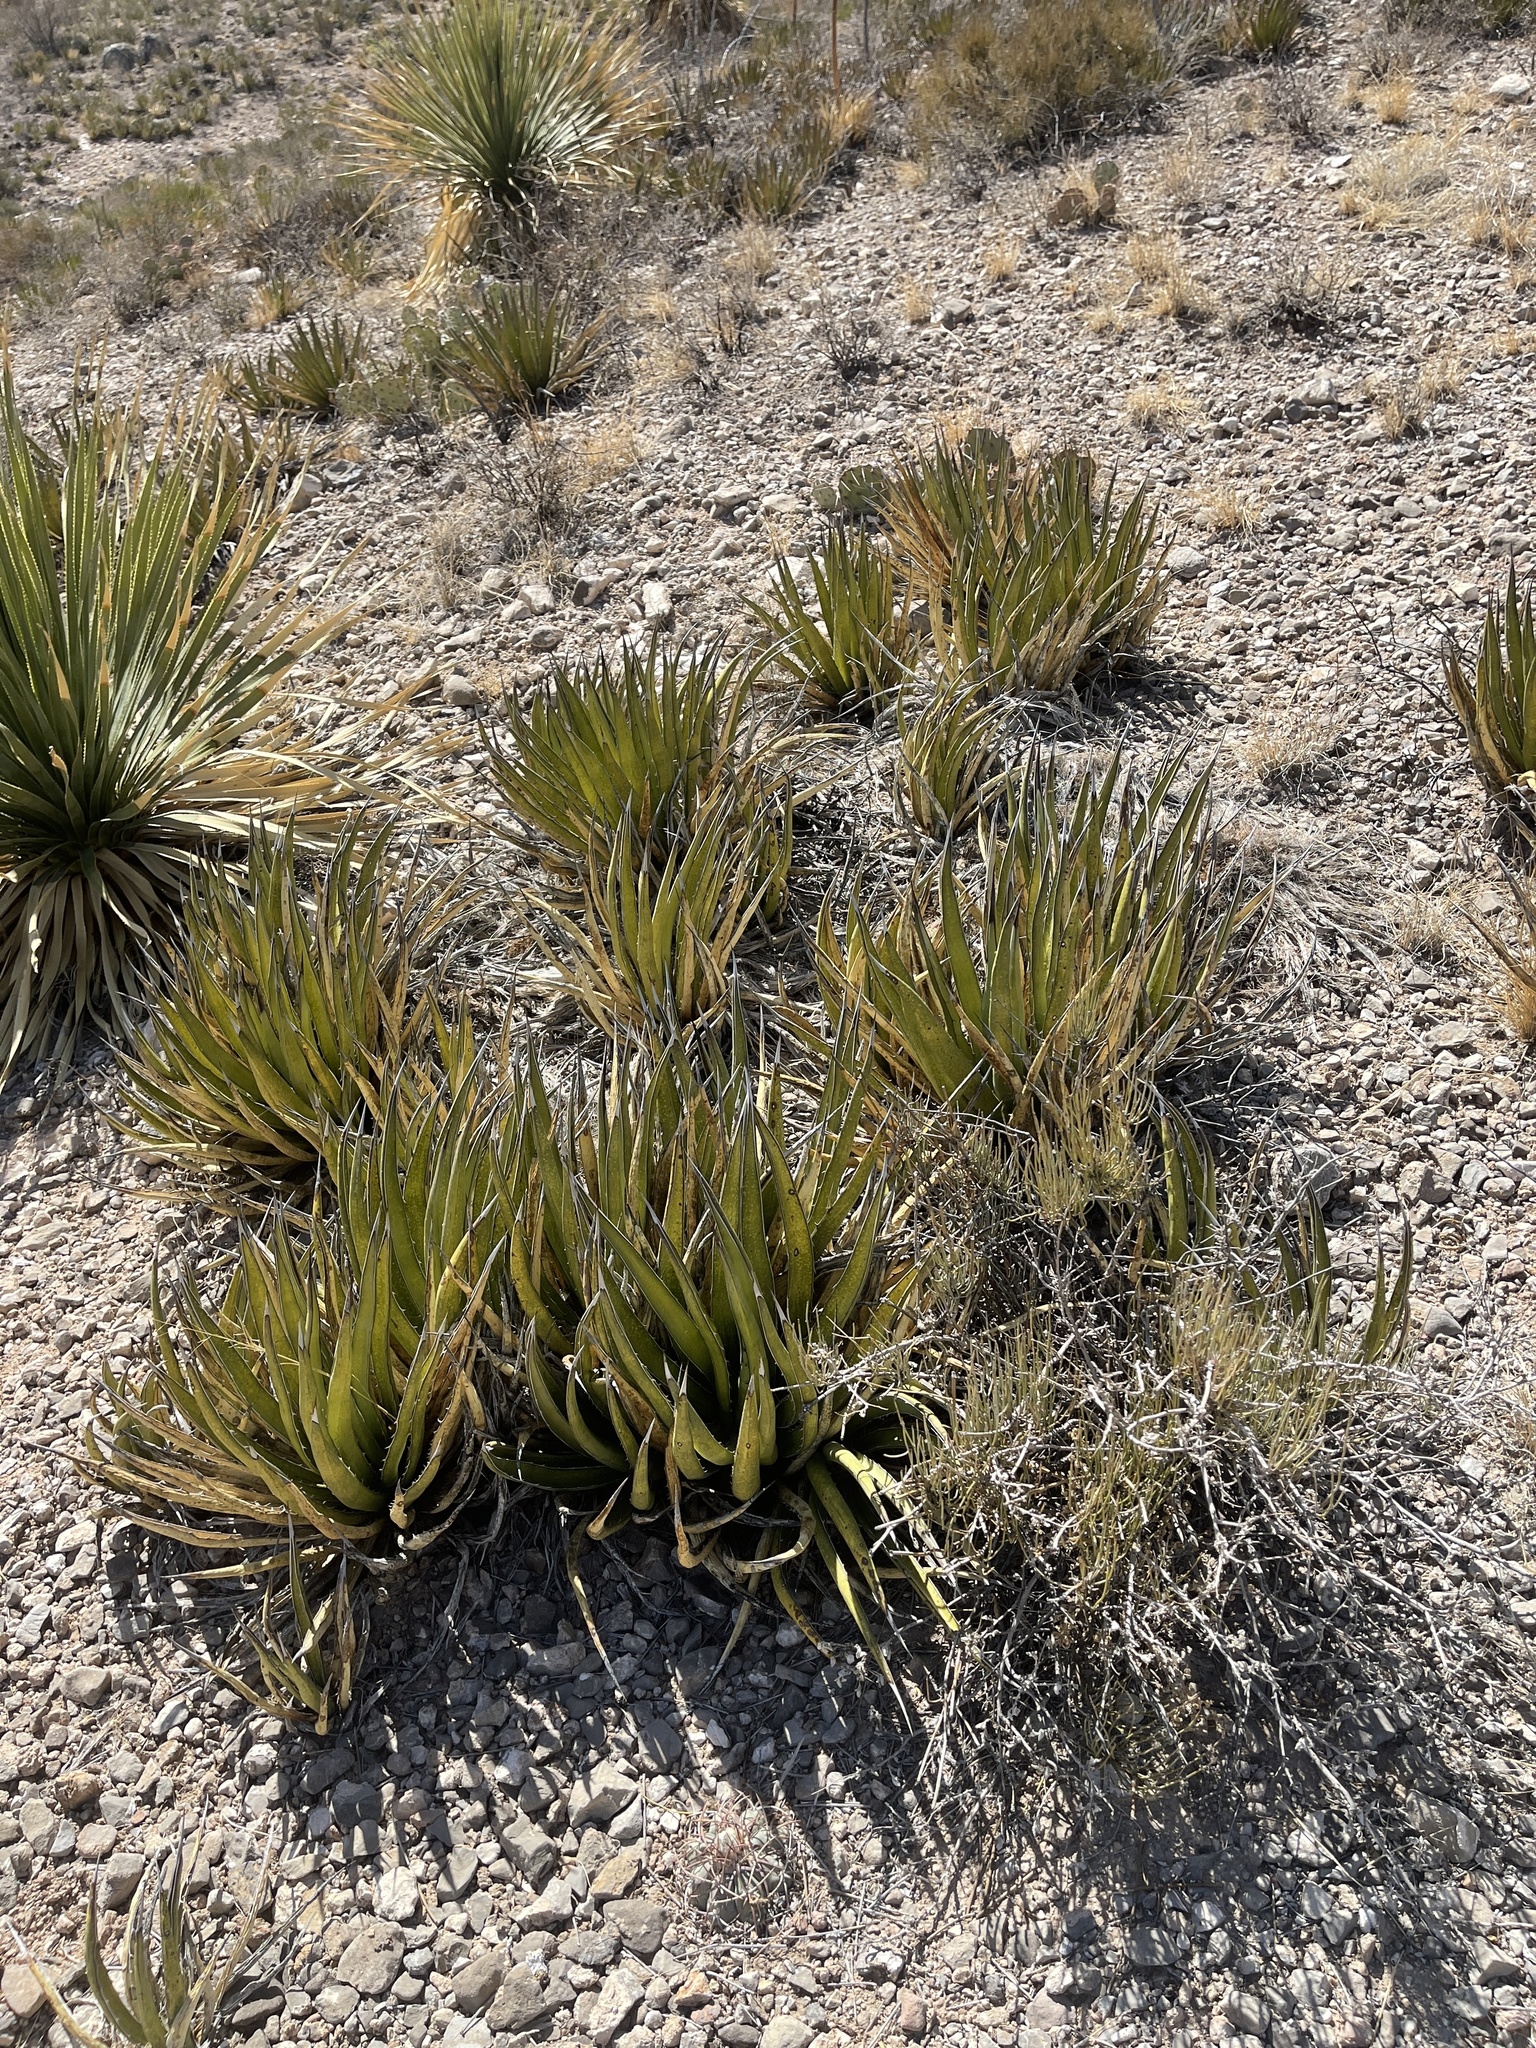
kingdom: Plantae
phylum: Tracheophyta
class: Liliopsida
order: Asparagales
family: Asparagaceae
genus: Agave
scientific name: Agave lechuguilla
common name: Lecheguilla agave
